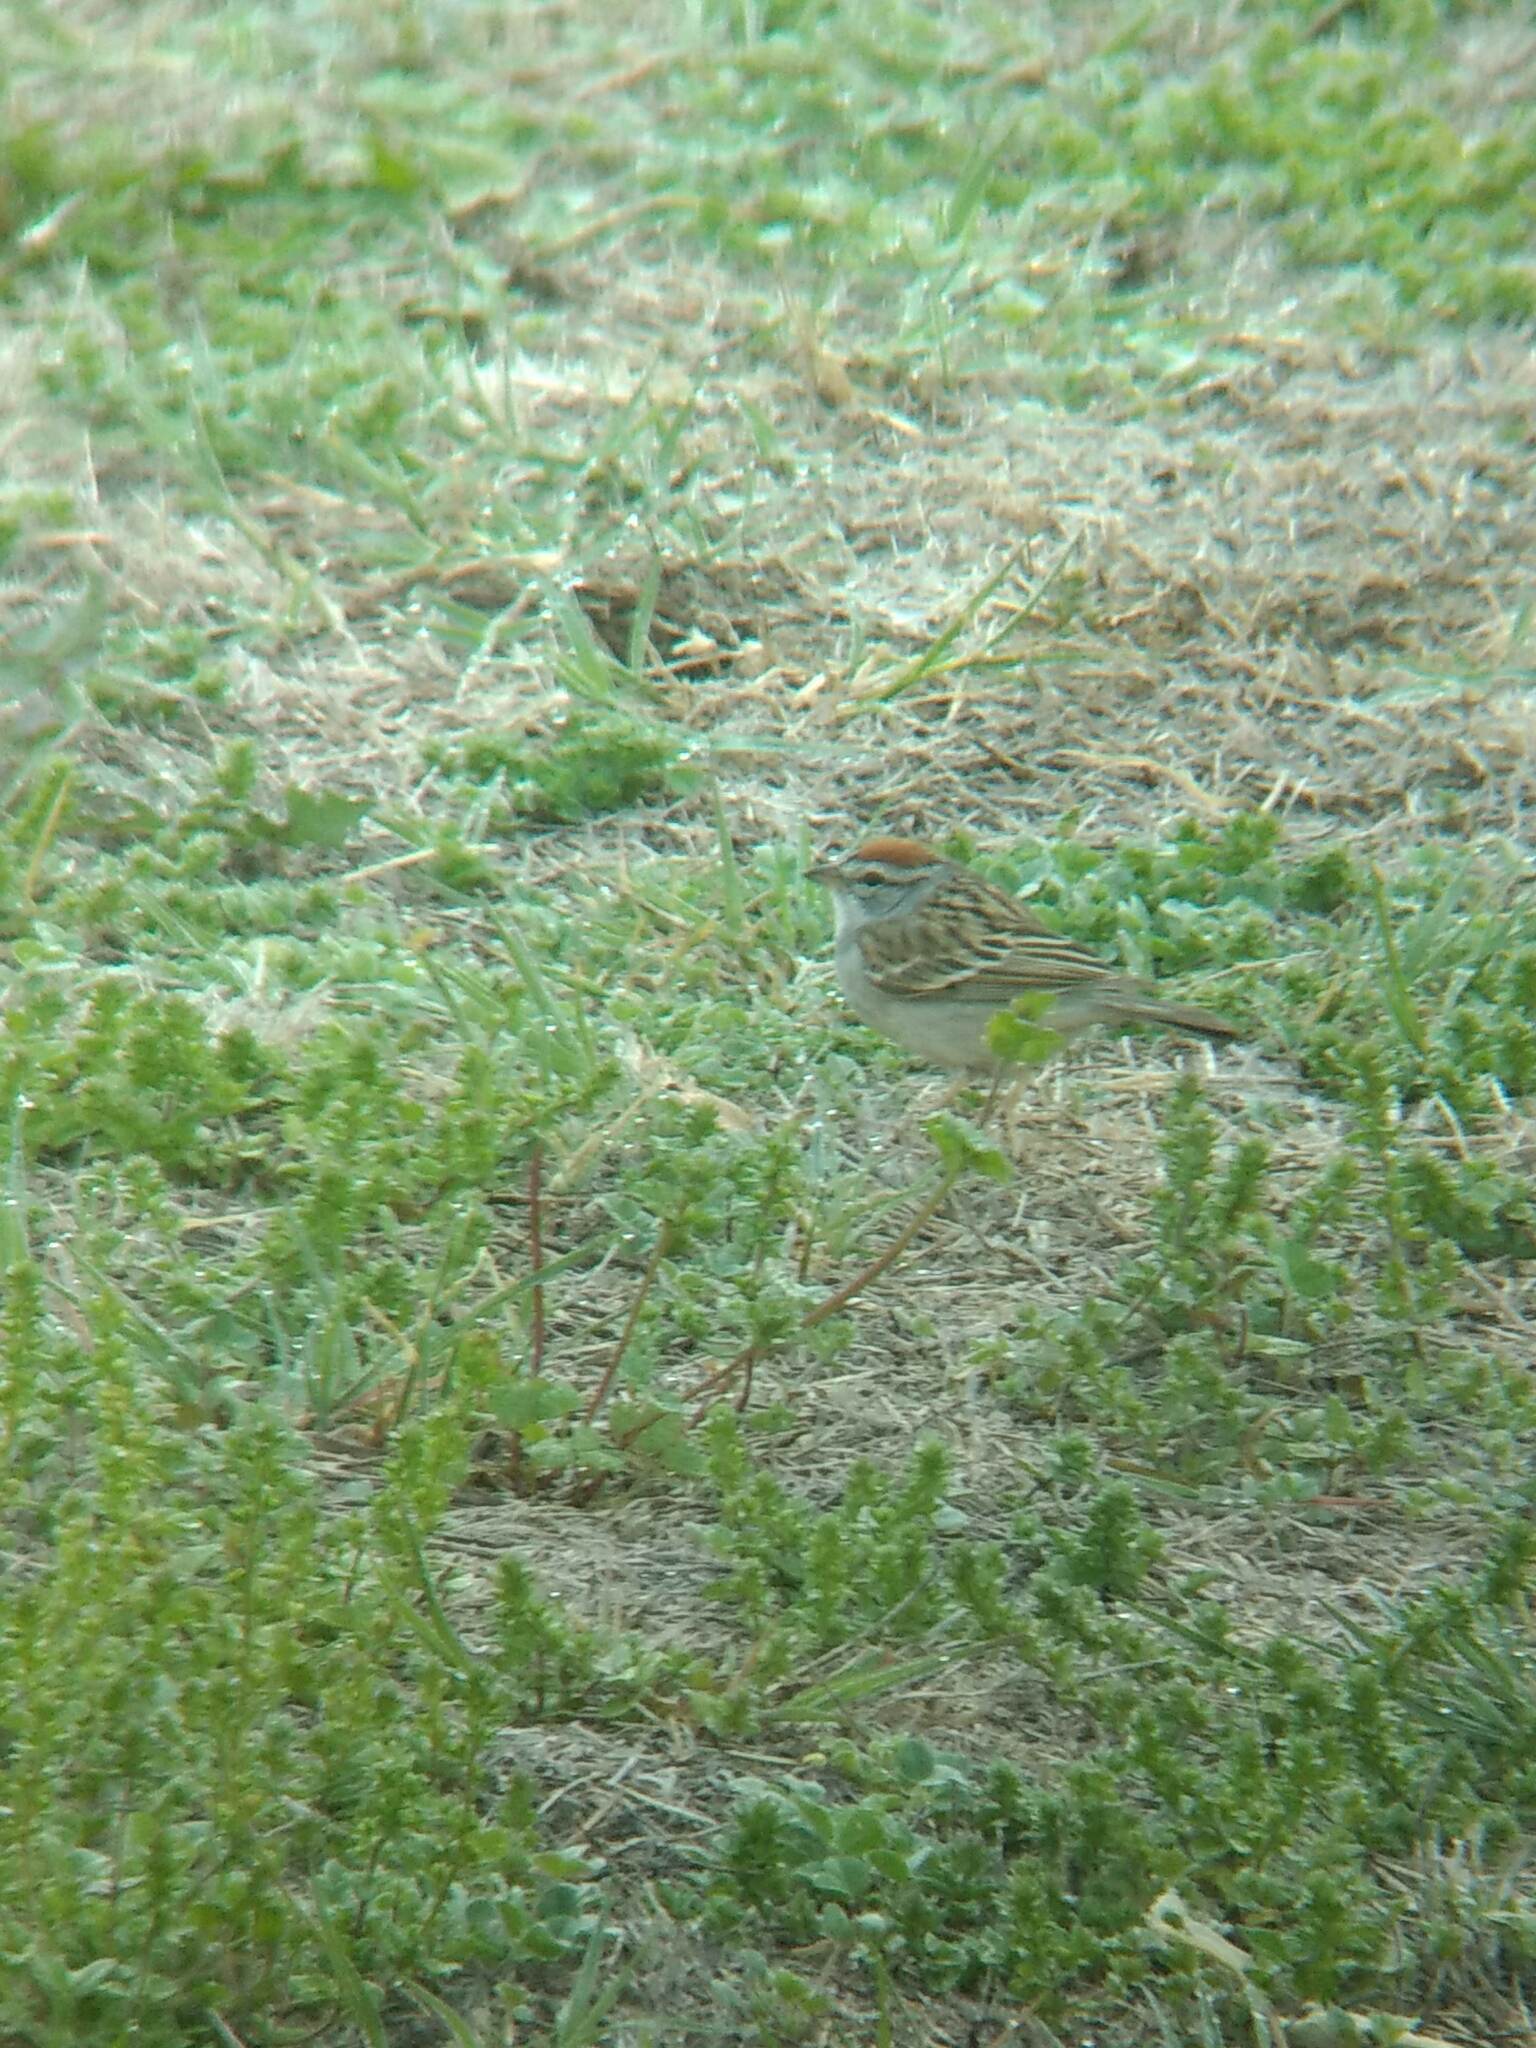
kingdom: Animalia
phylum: Chordata
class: Aves
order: Passeriformes
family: Passerellidae
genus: Spizella
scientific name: Spizella passerina
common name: Chipping sparrow
